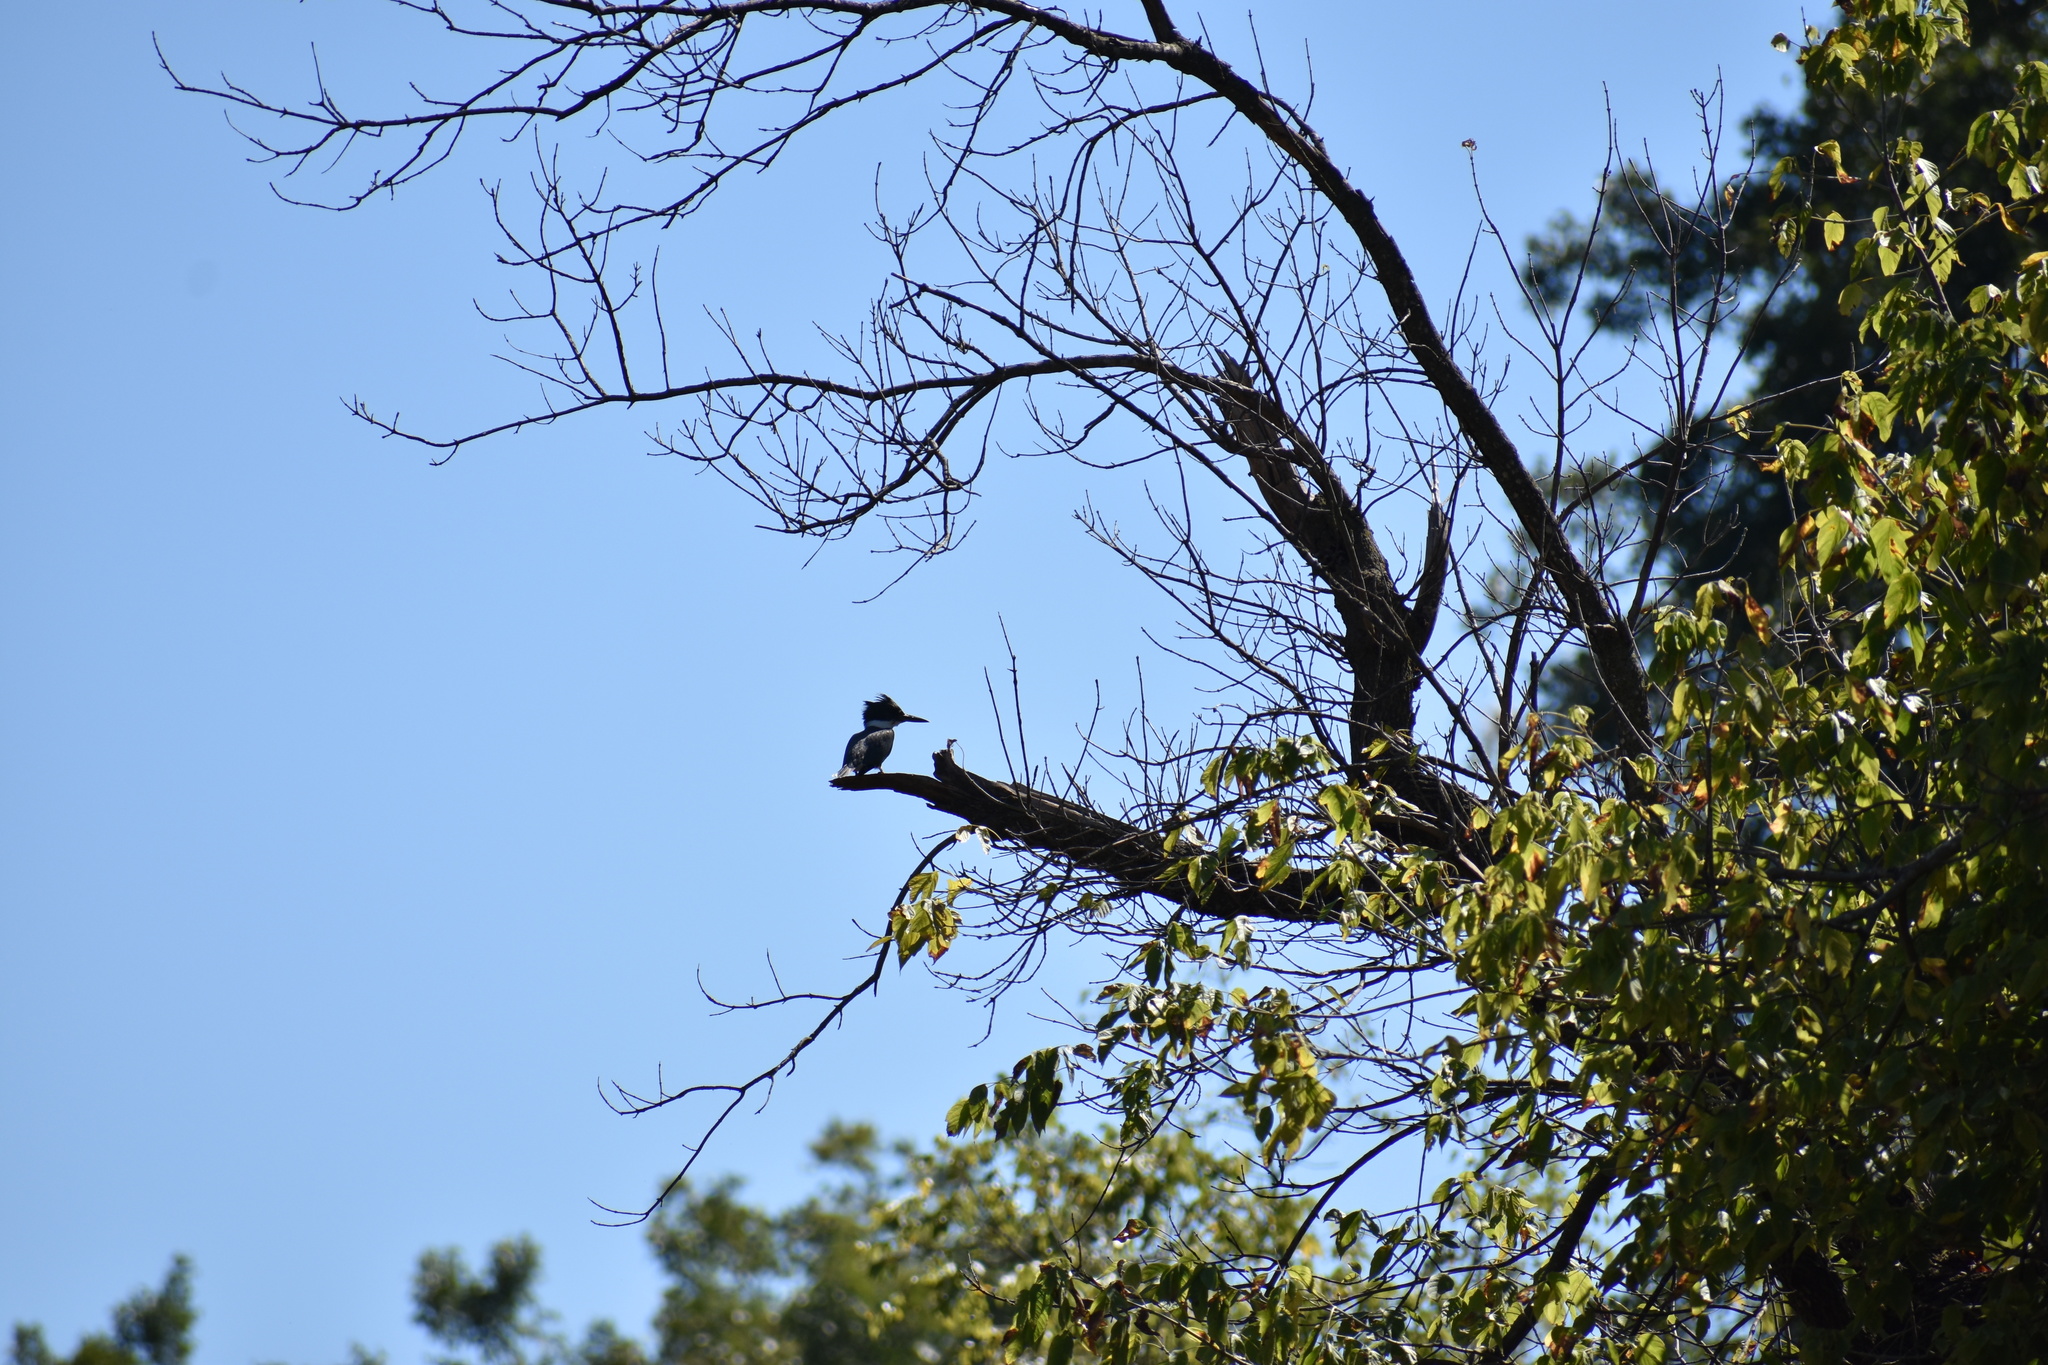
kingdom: Animalia
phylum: Chordata
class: Aves
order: Coraciiformes
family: Alcedinidae
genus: Megaceryle
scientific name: Megaceryle alcyon
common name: Belted kingfisher
